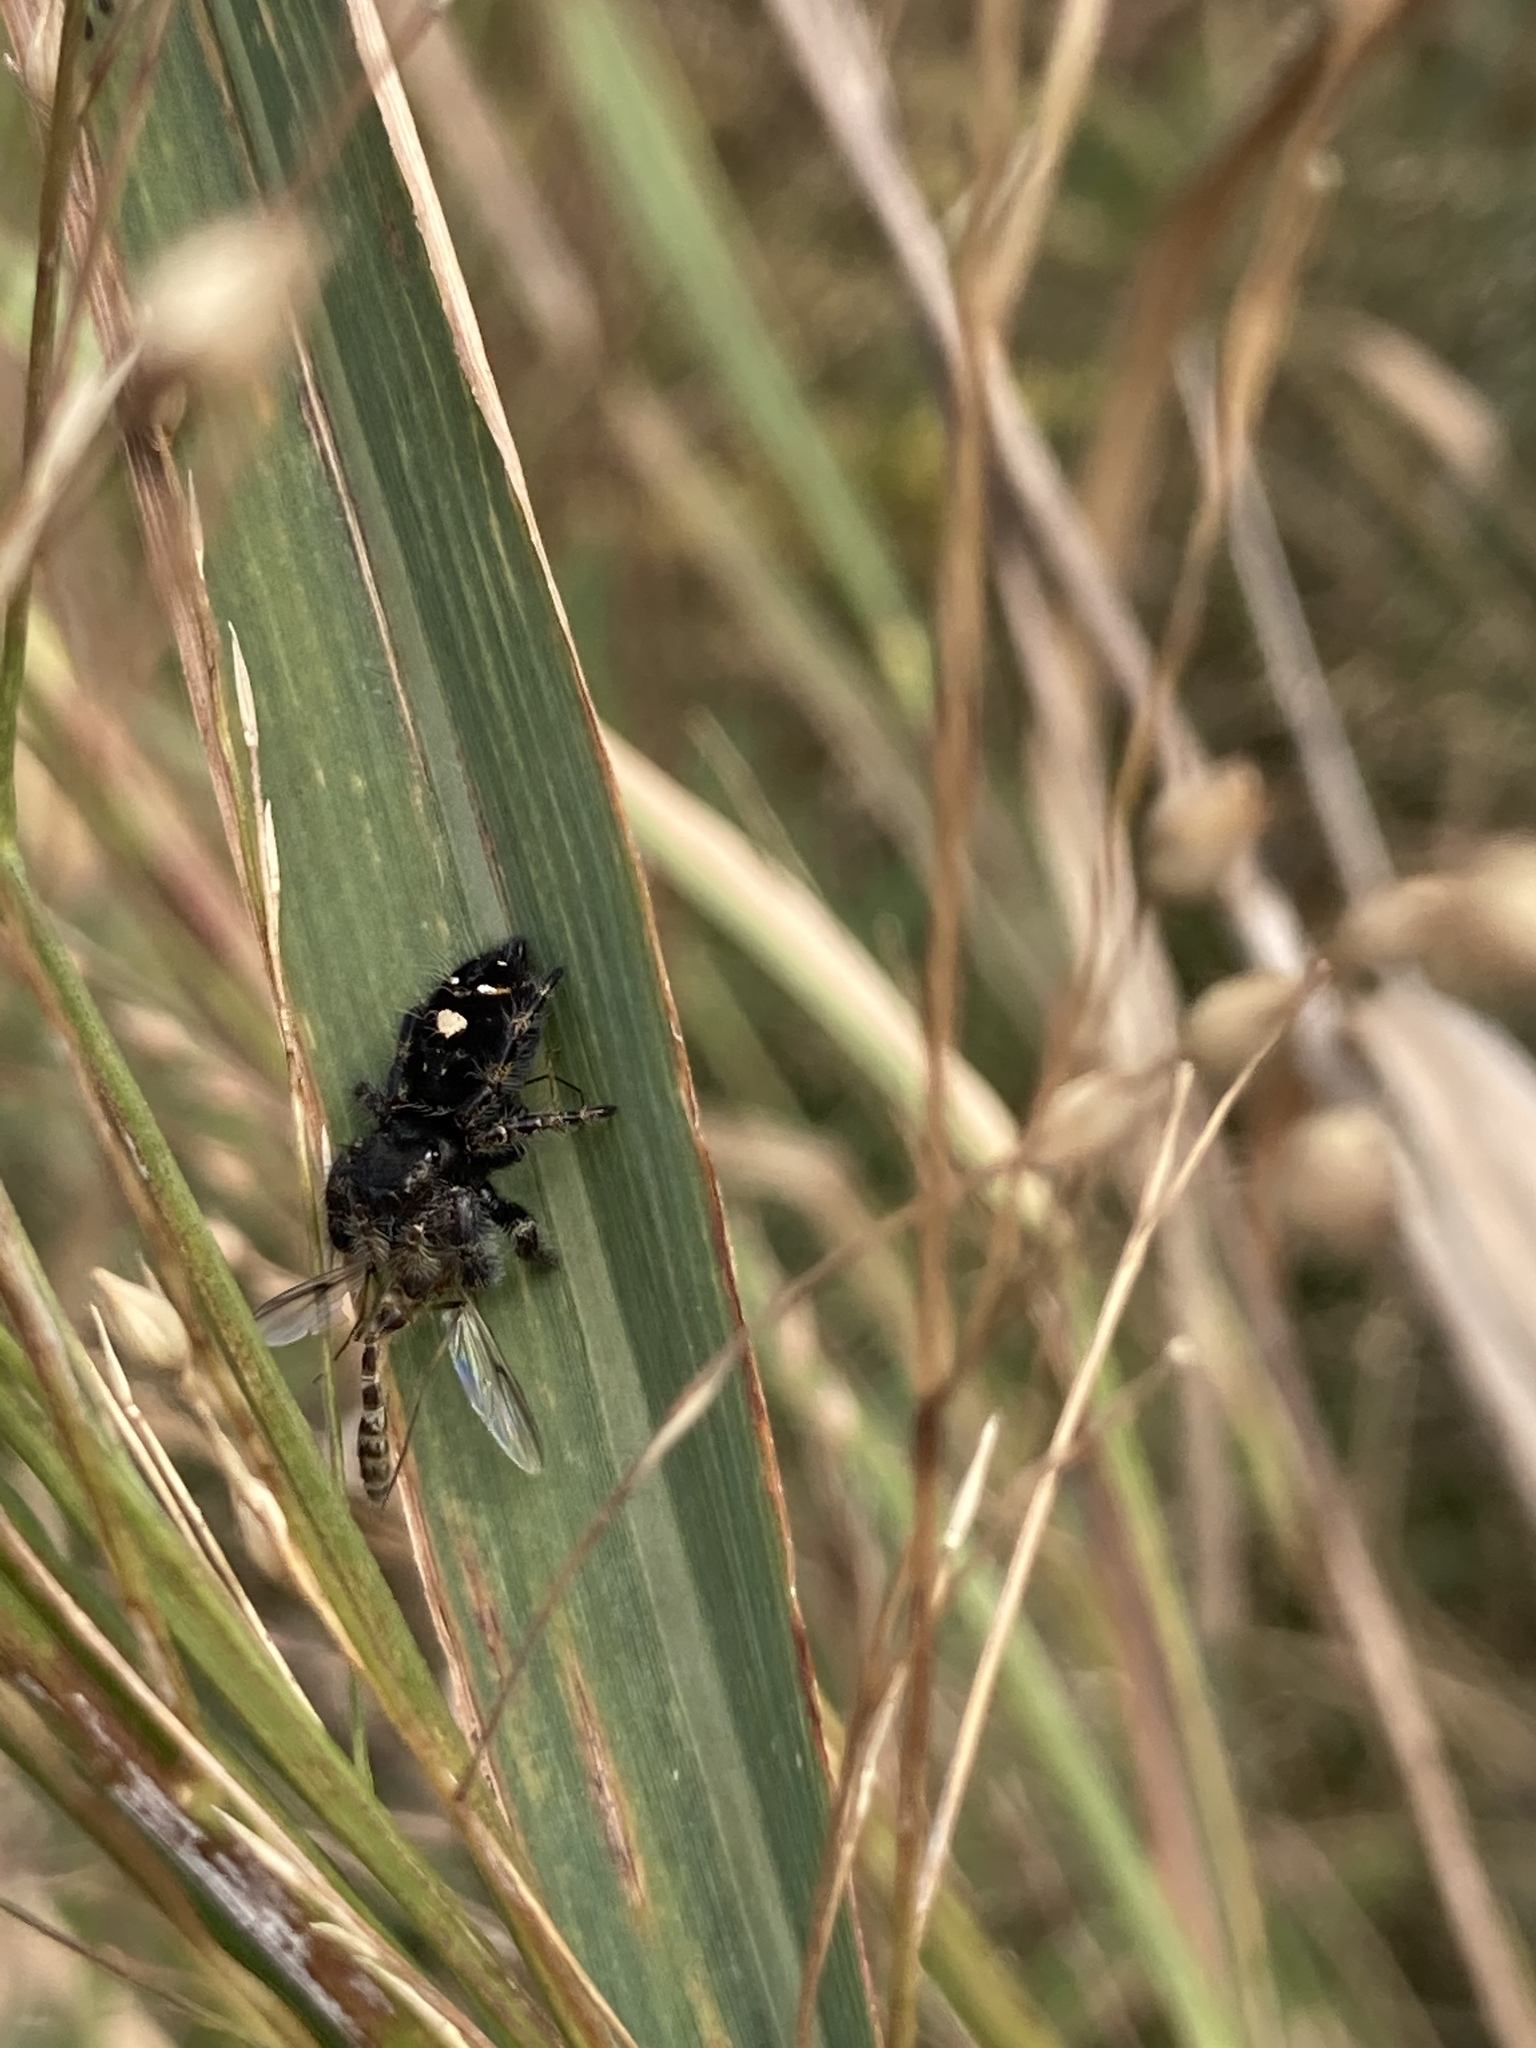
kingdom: Animalia
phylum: Arthropoda
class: Arachnida
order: Araneae
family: Salticidae
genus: Phidippus
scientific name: Phidippus audax
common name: Bold jumper
